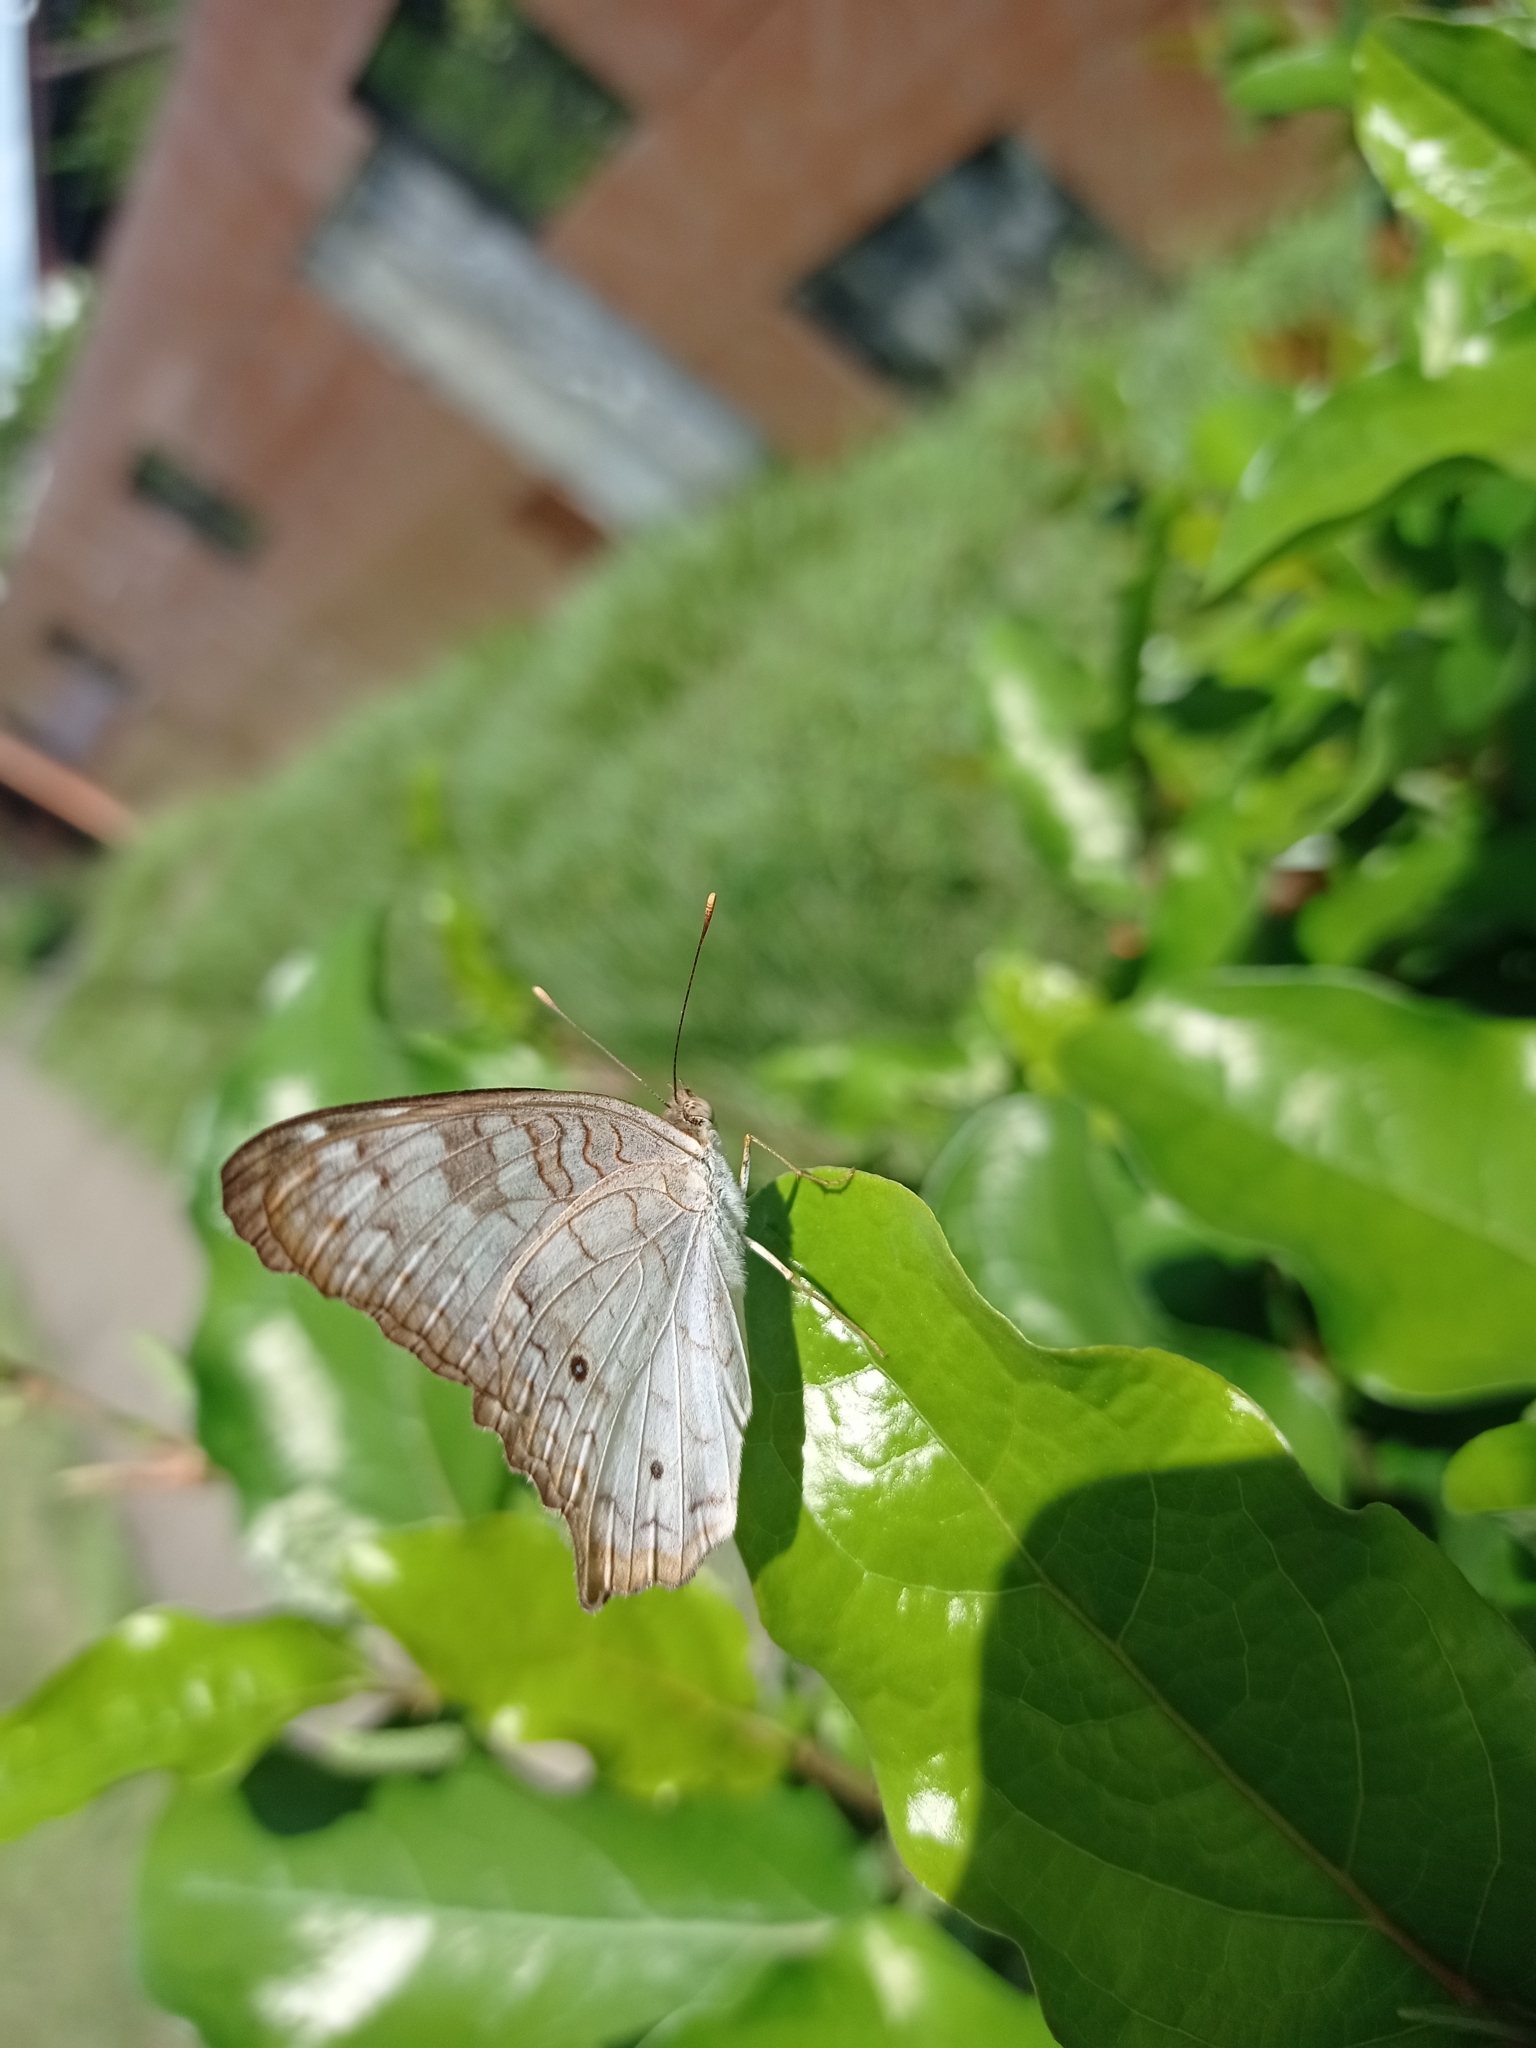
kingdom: Animalia
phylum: Arthropoda
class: Insecta
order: Lepidoptera
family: Nymphalidae
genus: Anartia
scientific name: Anartia jatrophae
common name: White peacock
